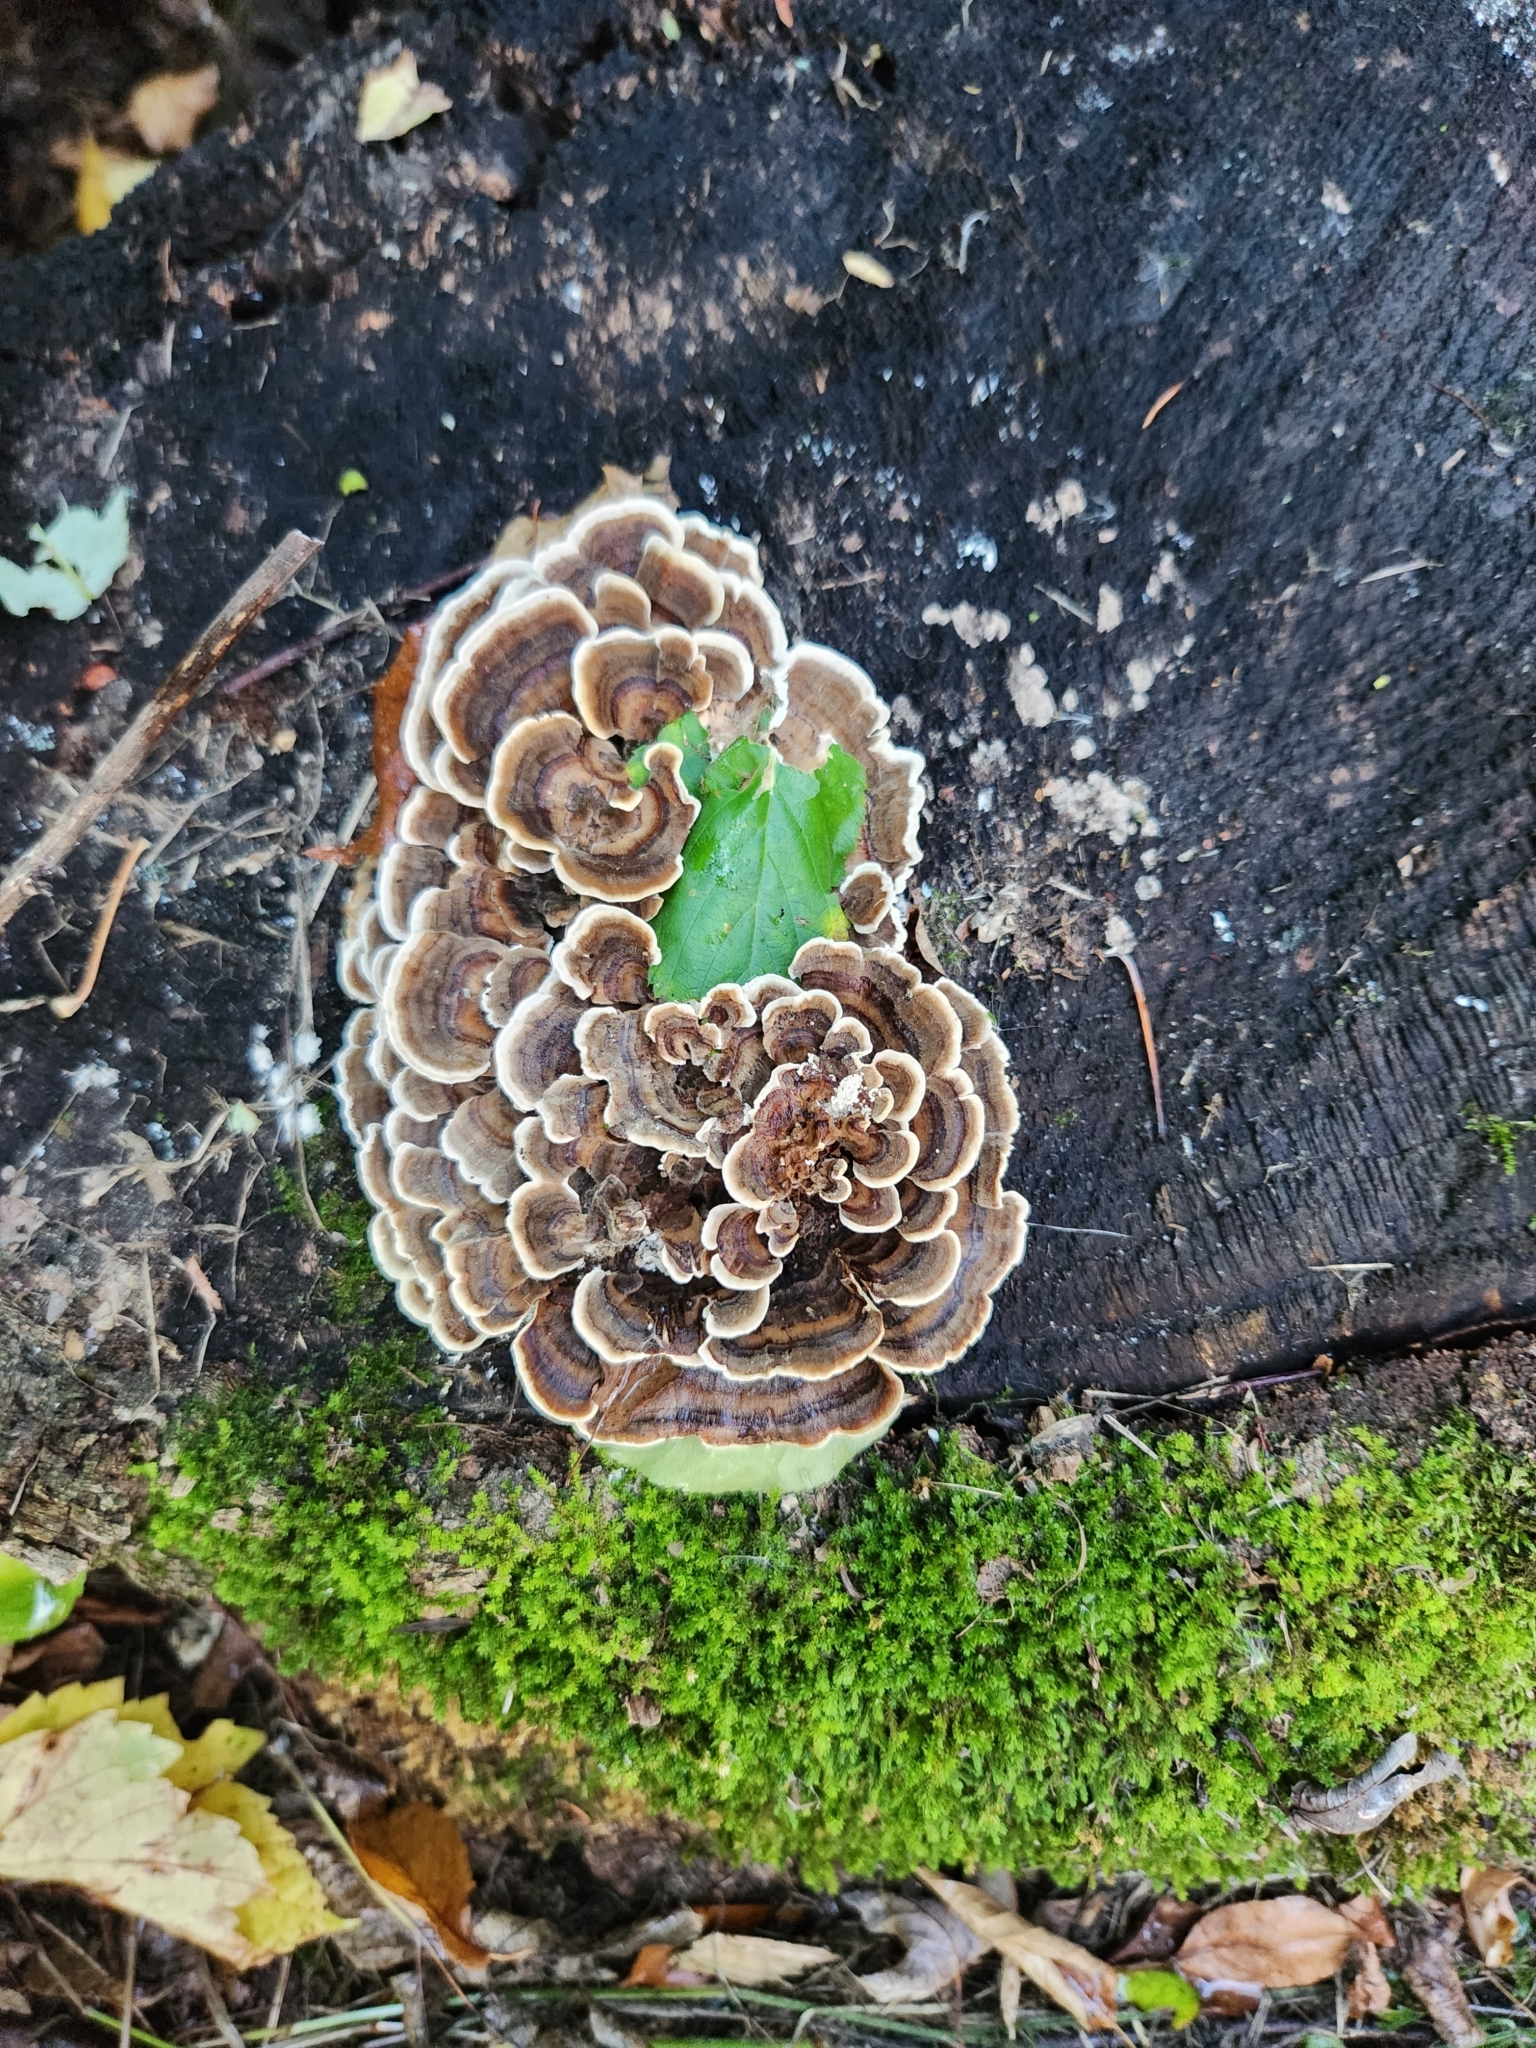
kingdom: Fungi
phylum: Basidiomycota
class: Agaricomycetes
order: Polyporales
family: Polyporaceae
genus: Trametes
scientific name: Trametes versicolor
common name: Turkeytail
